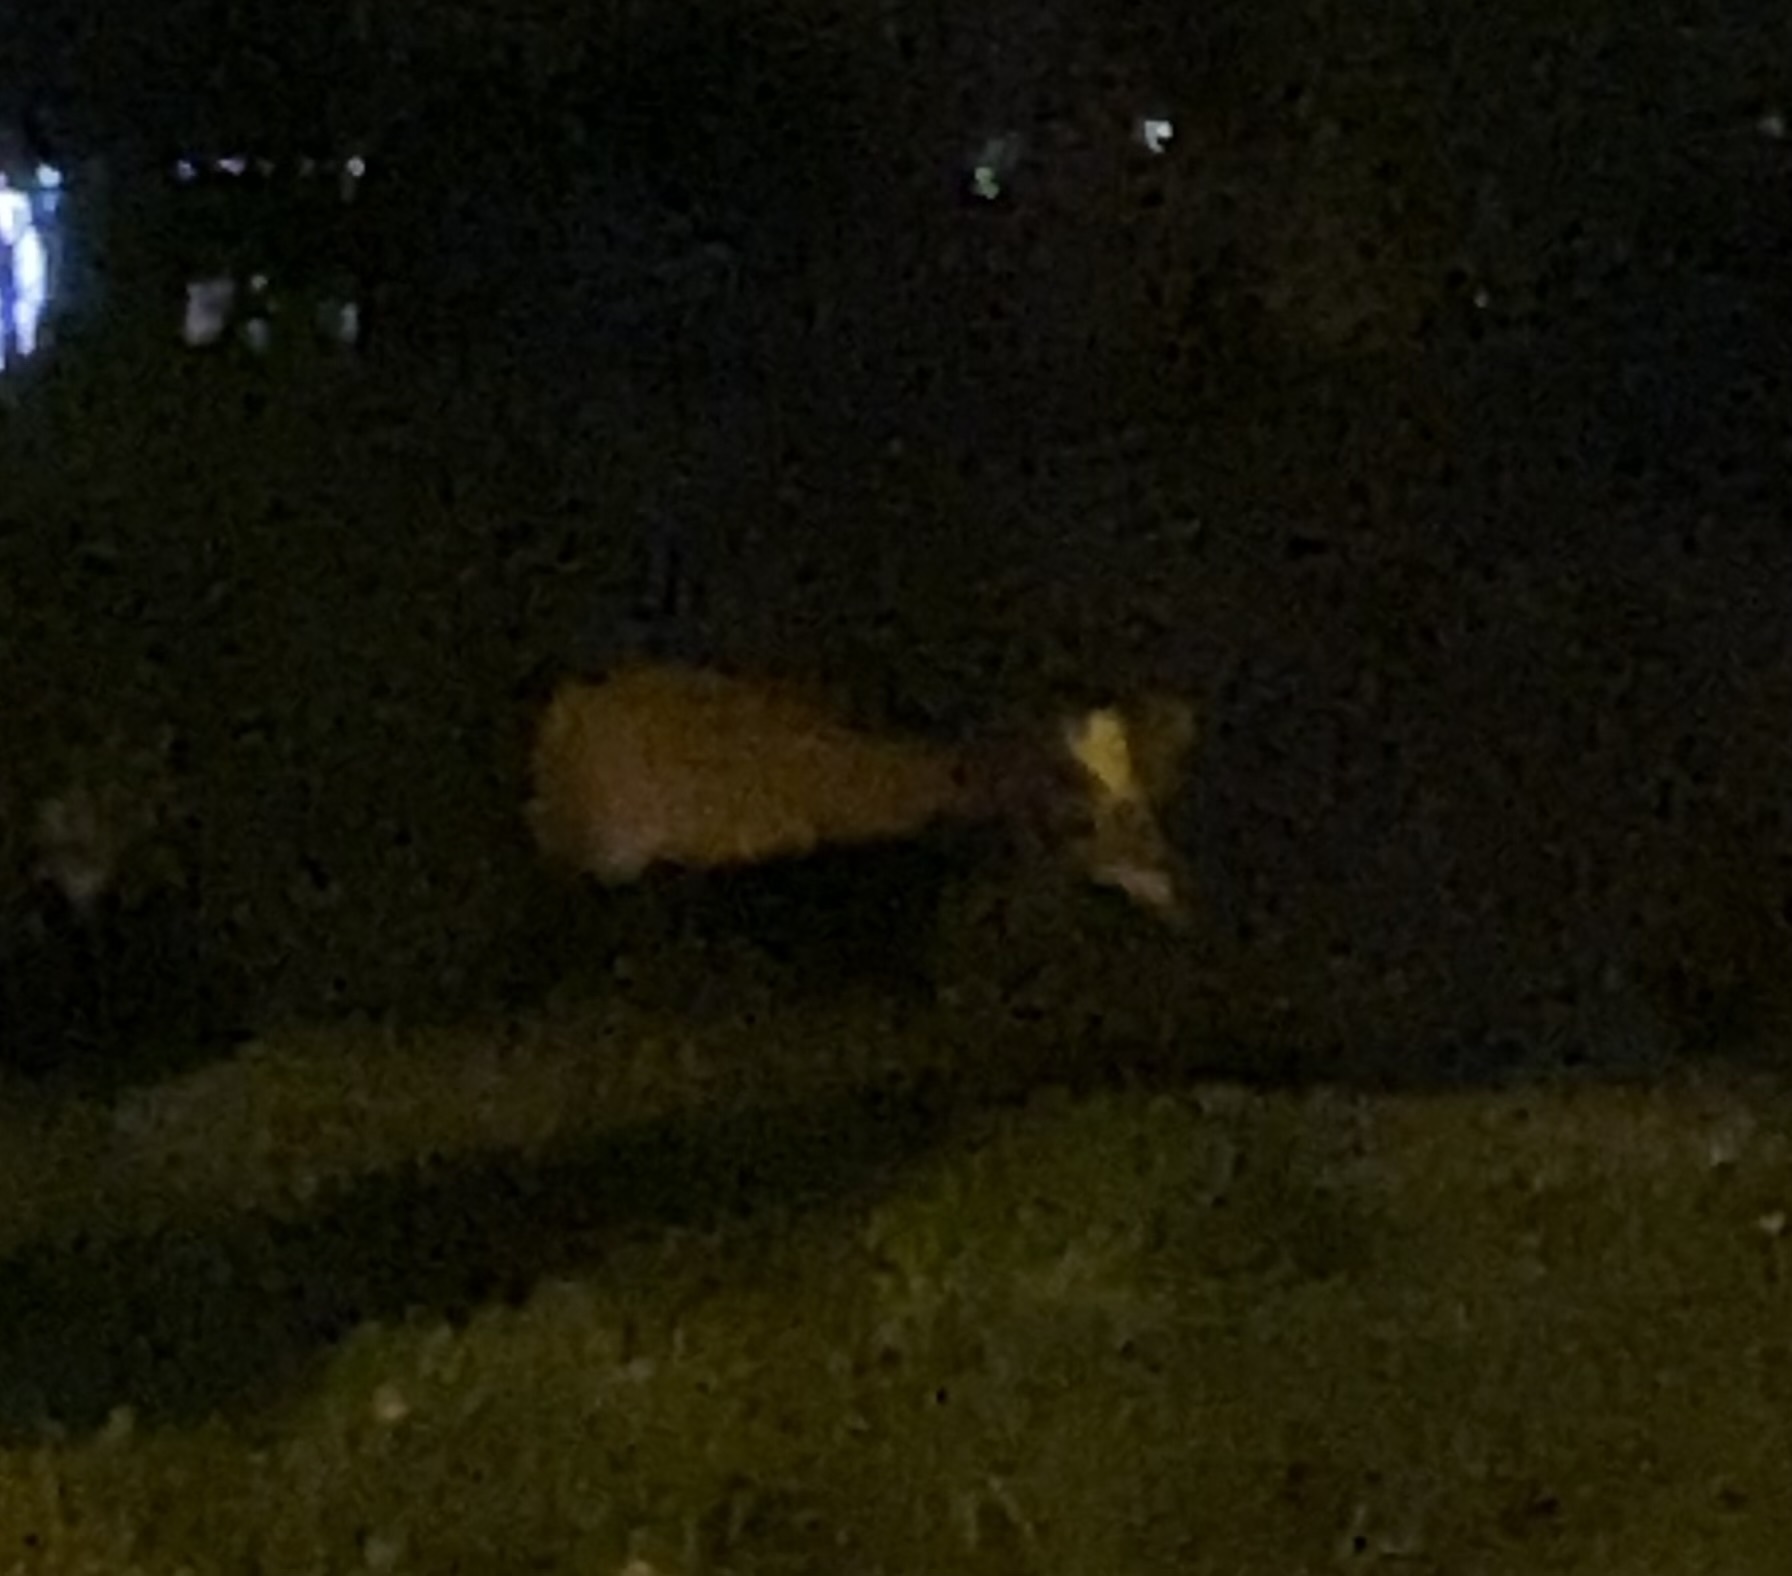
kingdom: Animalia
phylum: Chordata
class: Mammalia
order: Artiodactyla
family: Cervidae
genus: Odocoileus
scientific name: Odocoileus virginianus
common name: White-tailed deer
